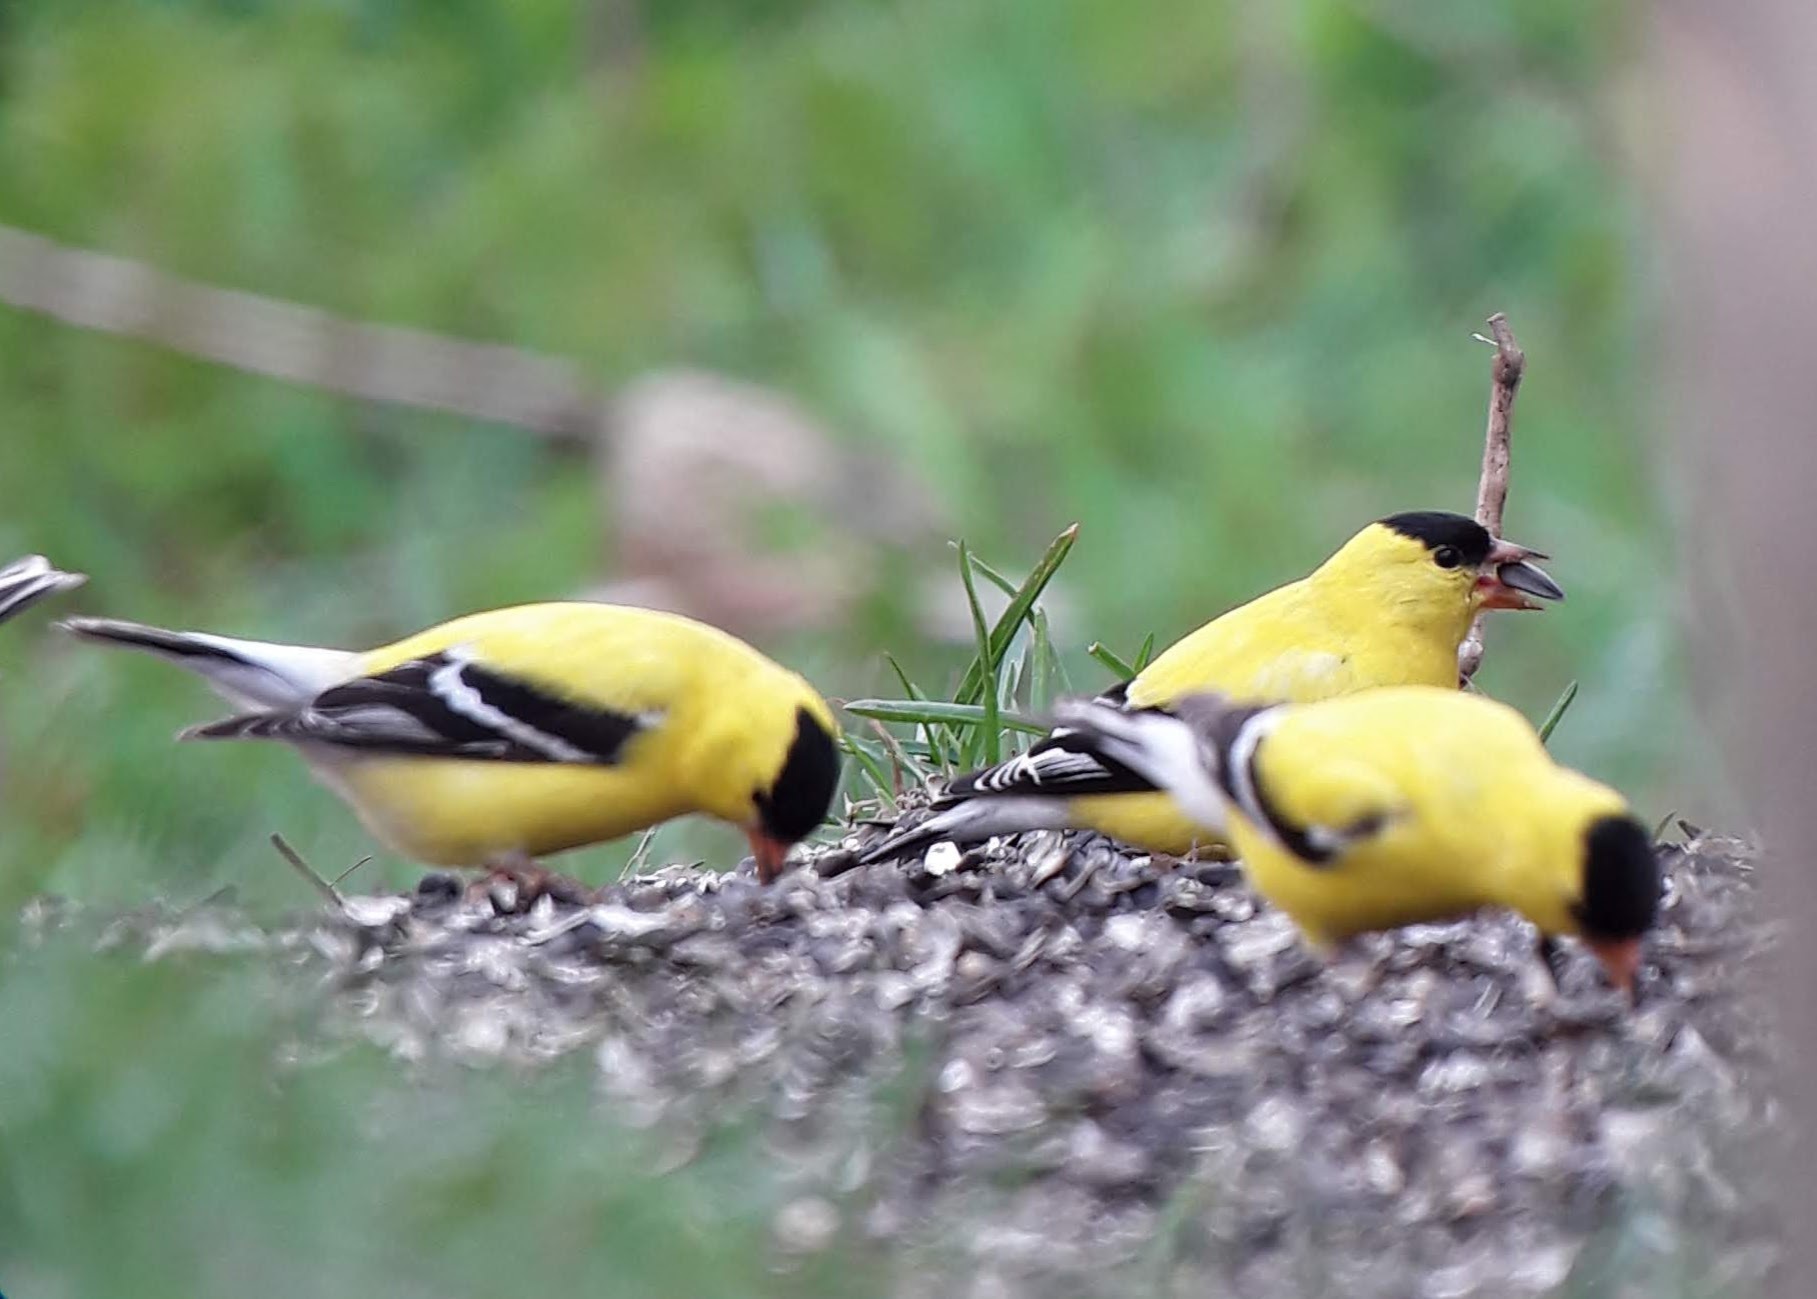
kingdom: Animalia
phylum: Chordata
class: Aves
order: Passeriformes
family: Fringillidae
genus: Spinus
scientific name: Spinus tristis
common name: American goldfinch
